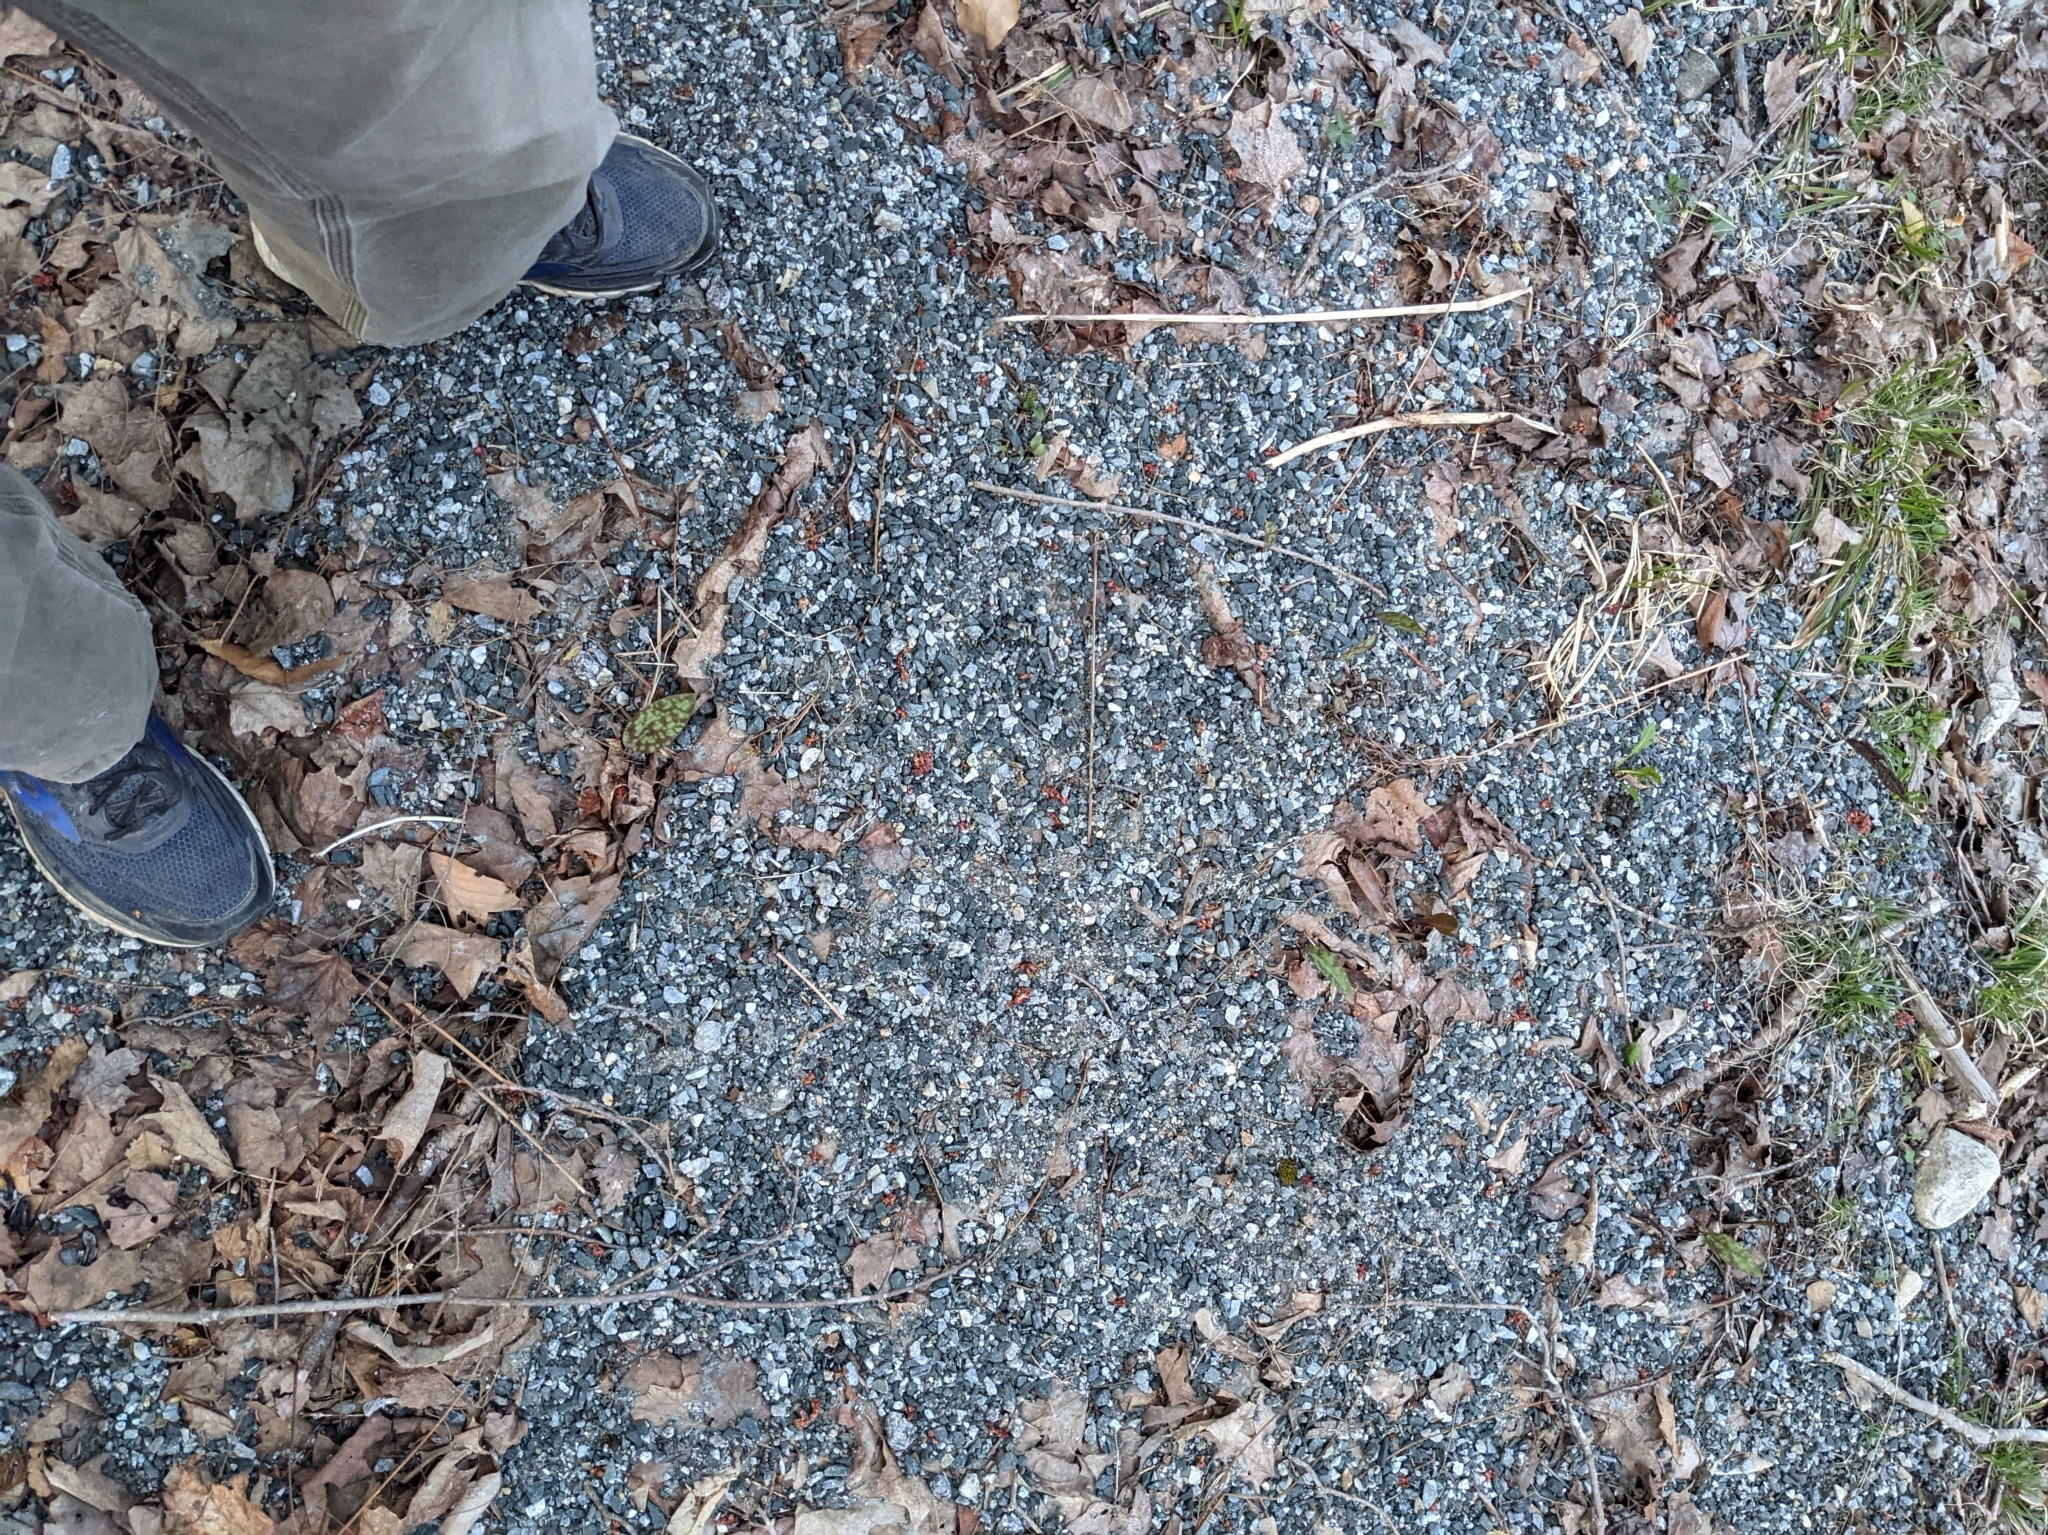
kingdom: Plantae
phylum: Tracheophyta
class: Liliopsida
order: Liliales
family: Liliaceae
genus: Erythronium
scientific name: Erythronium americanum
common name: Yellow adder's-tongue
